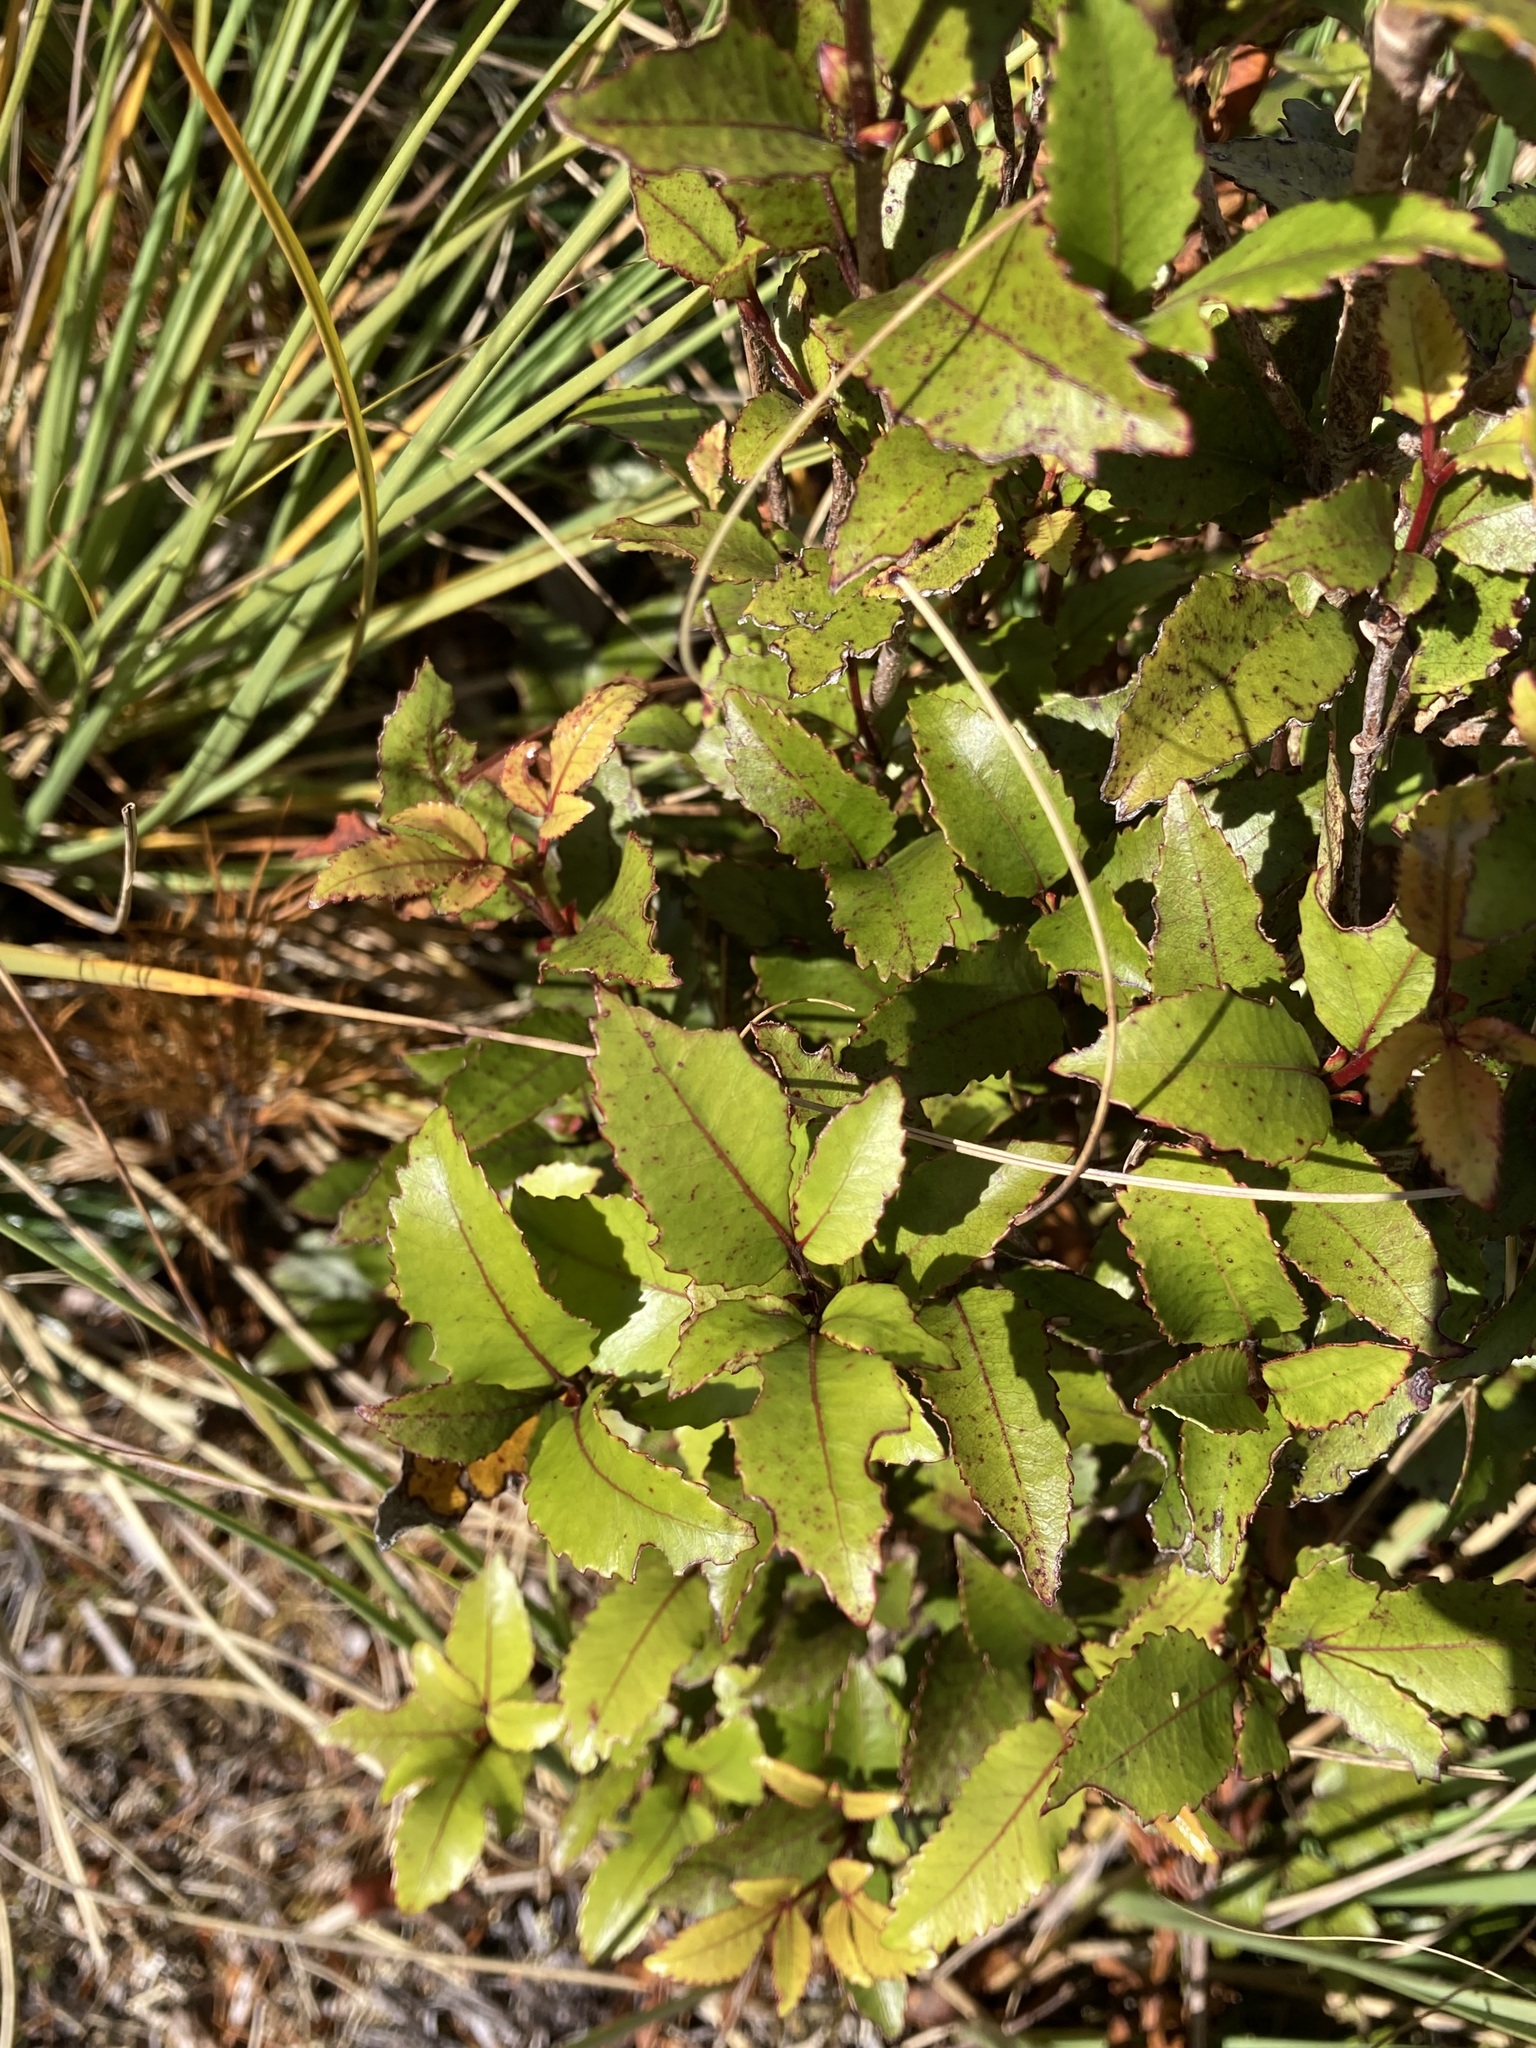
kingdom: Plantae
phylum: Tracheophyta
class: Magnoliopsida
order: Oxalidales
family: Cunoniaceae
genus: Pterophylla
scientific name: Pterophylla racemosa
